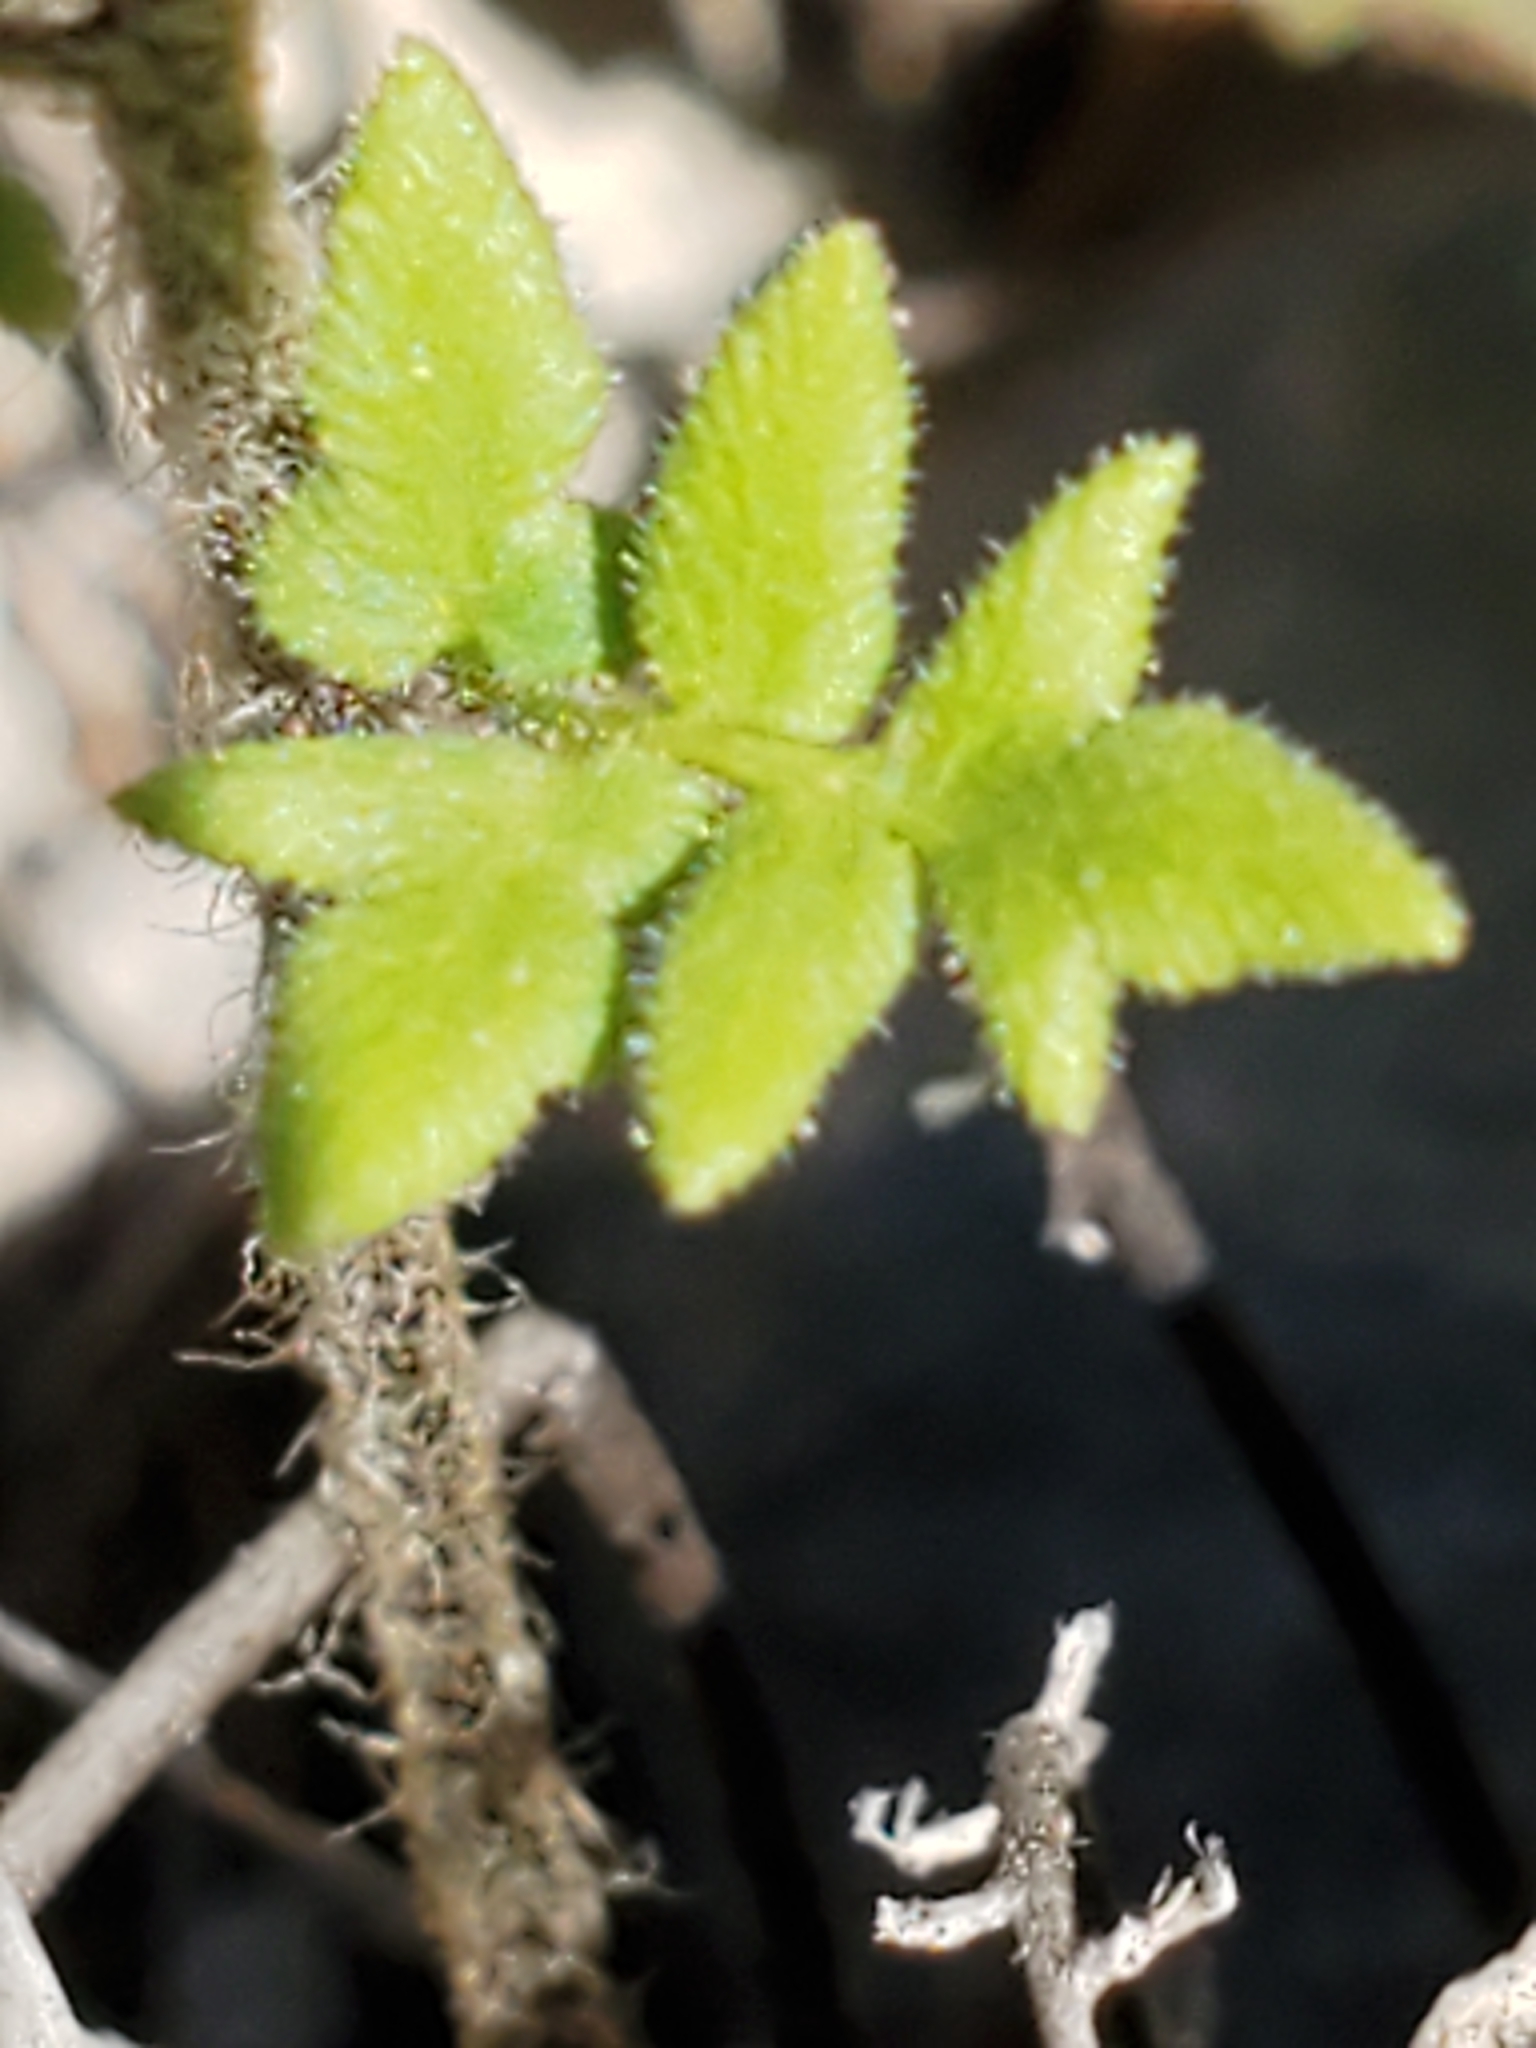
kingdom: Plantae
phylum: Tracheophyta
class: Polypodiopsida
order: Polypodiales
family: Pteridaceae
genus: Myriopteris
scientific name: Myriopteris scabra
